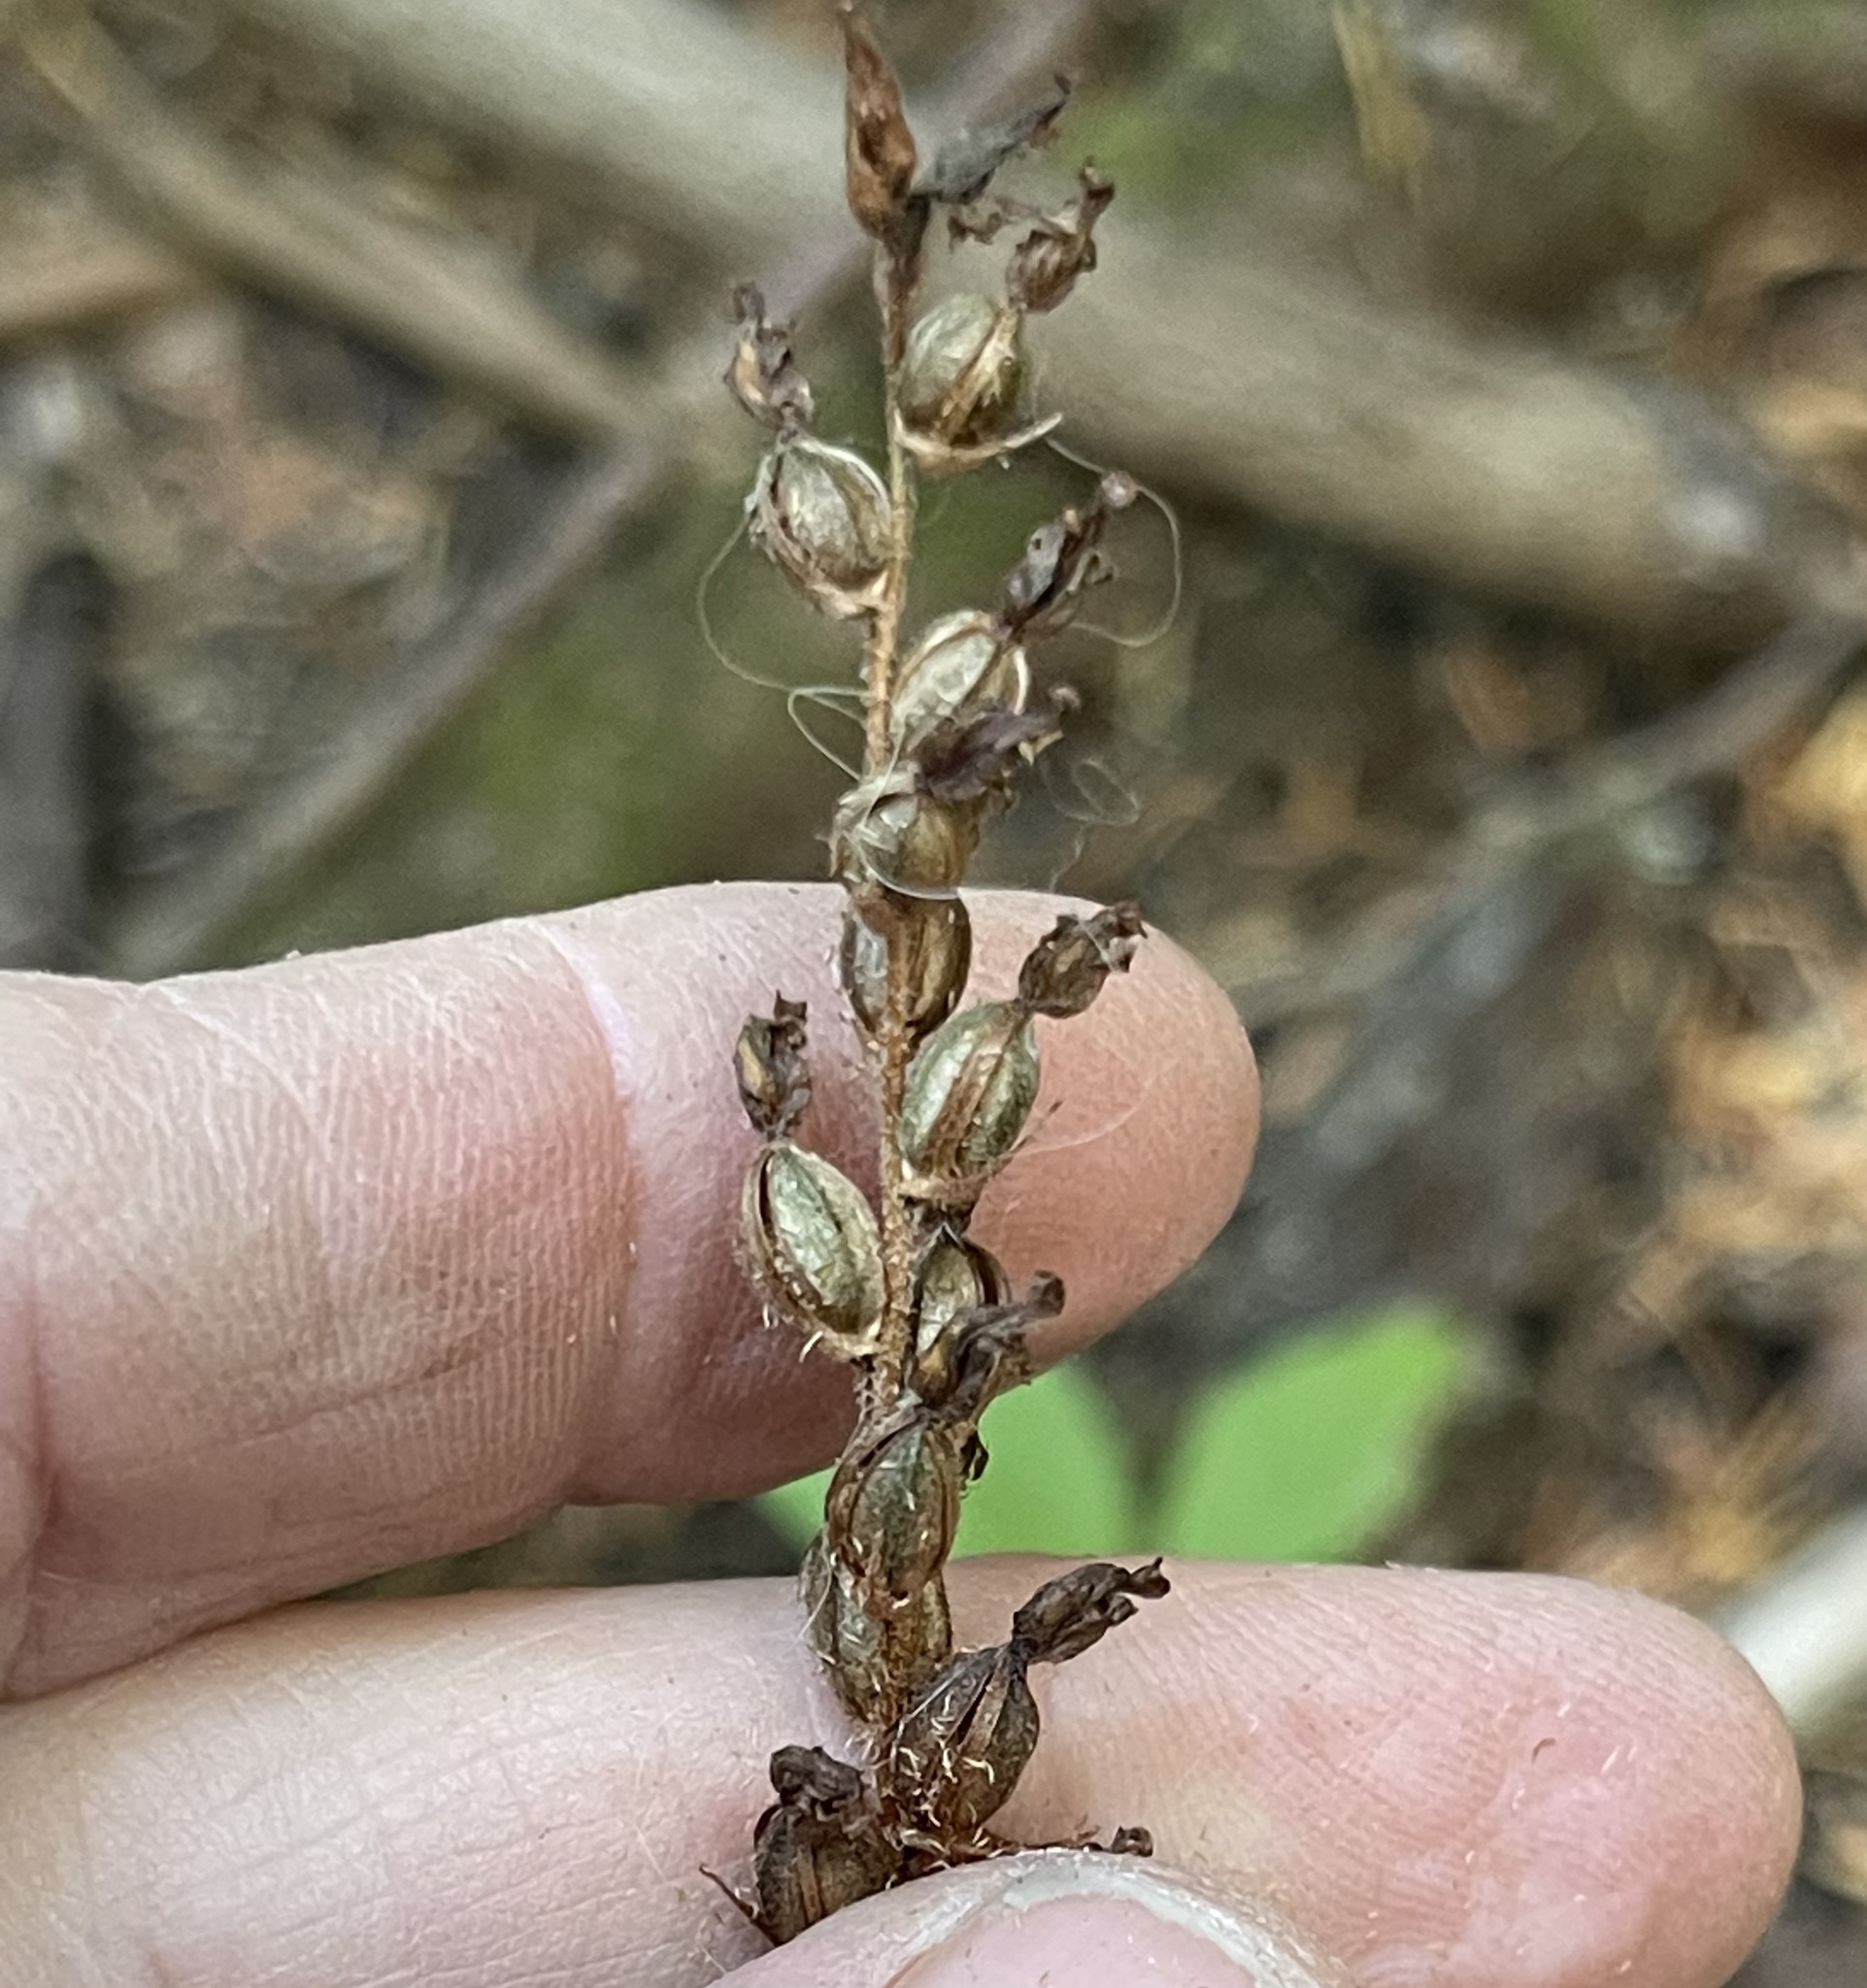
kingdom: Plantae
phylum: Tracheophyta
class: Liliopsida
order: Asparagales
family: Orchidaceae
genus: Goodyera
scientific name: Goodyera oblongifolia
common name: Giant rattlesnake-plantain
